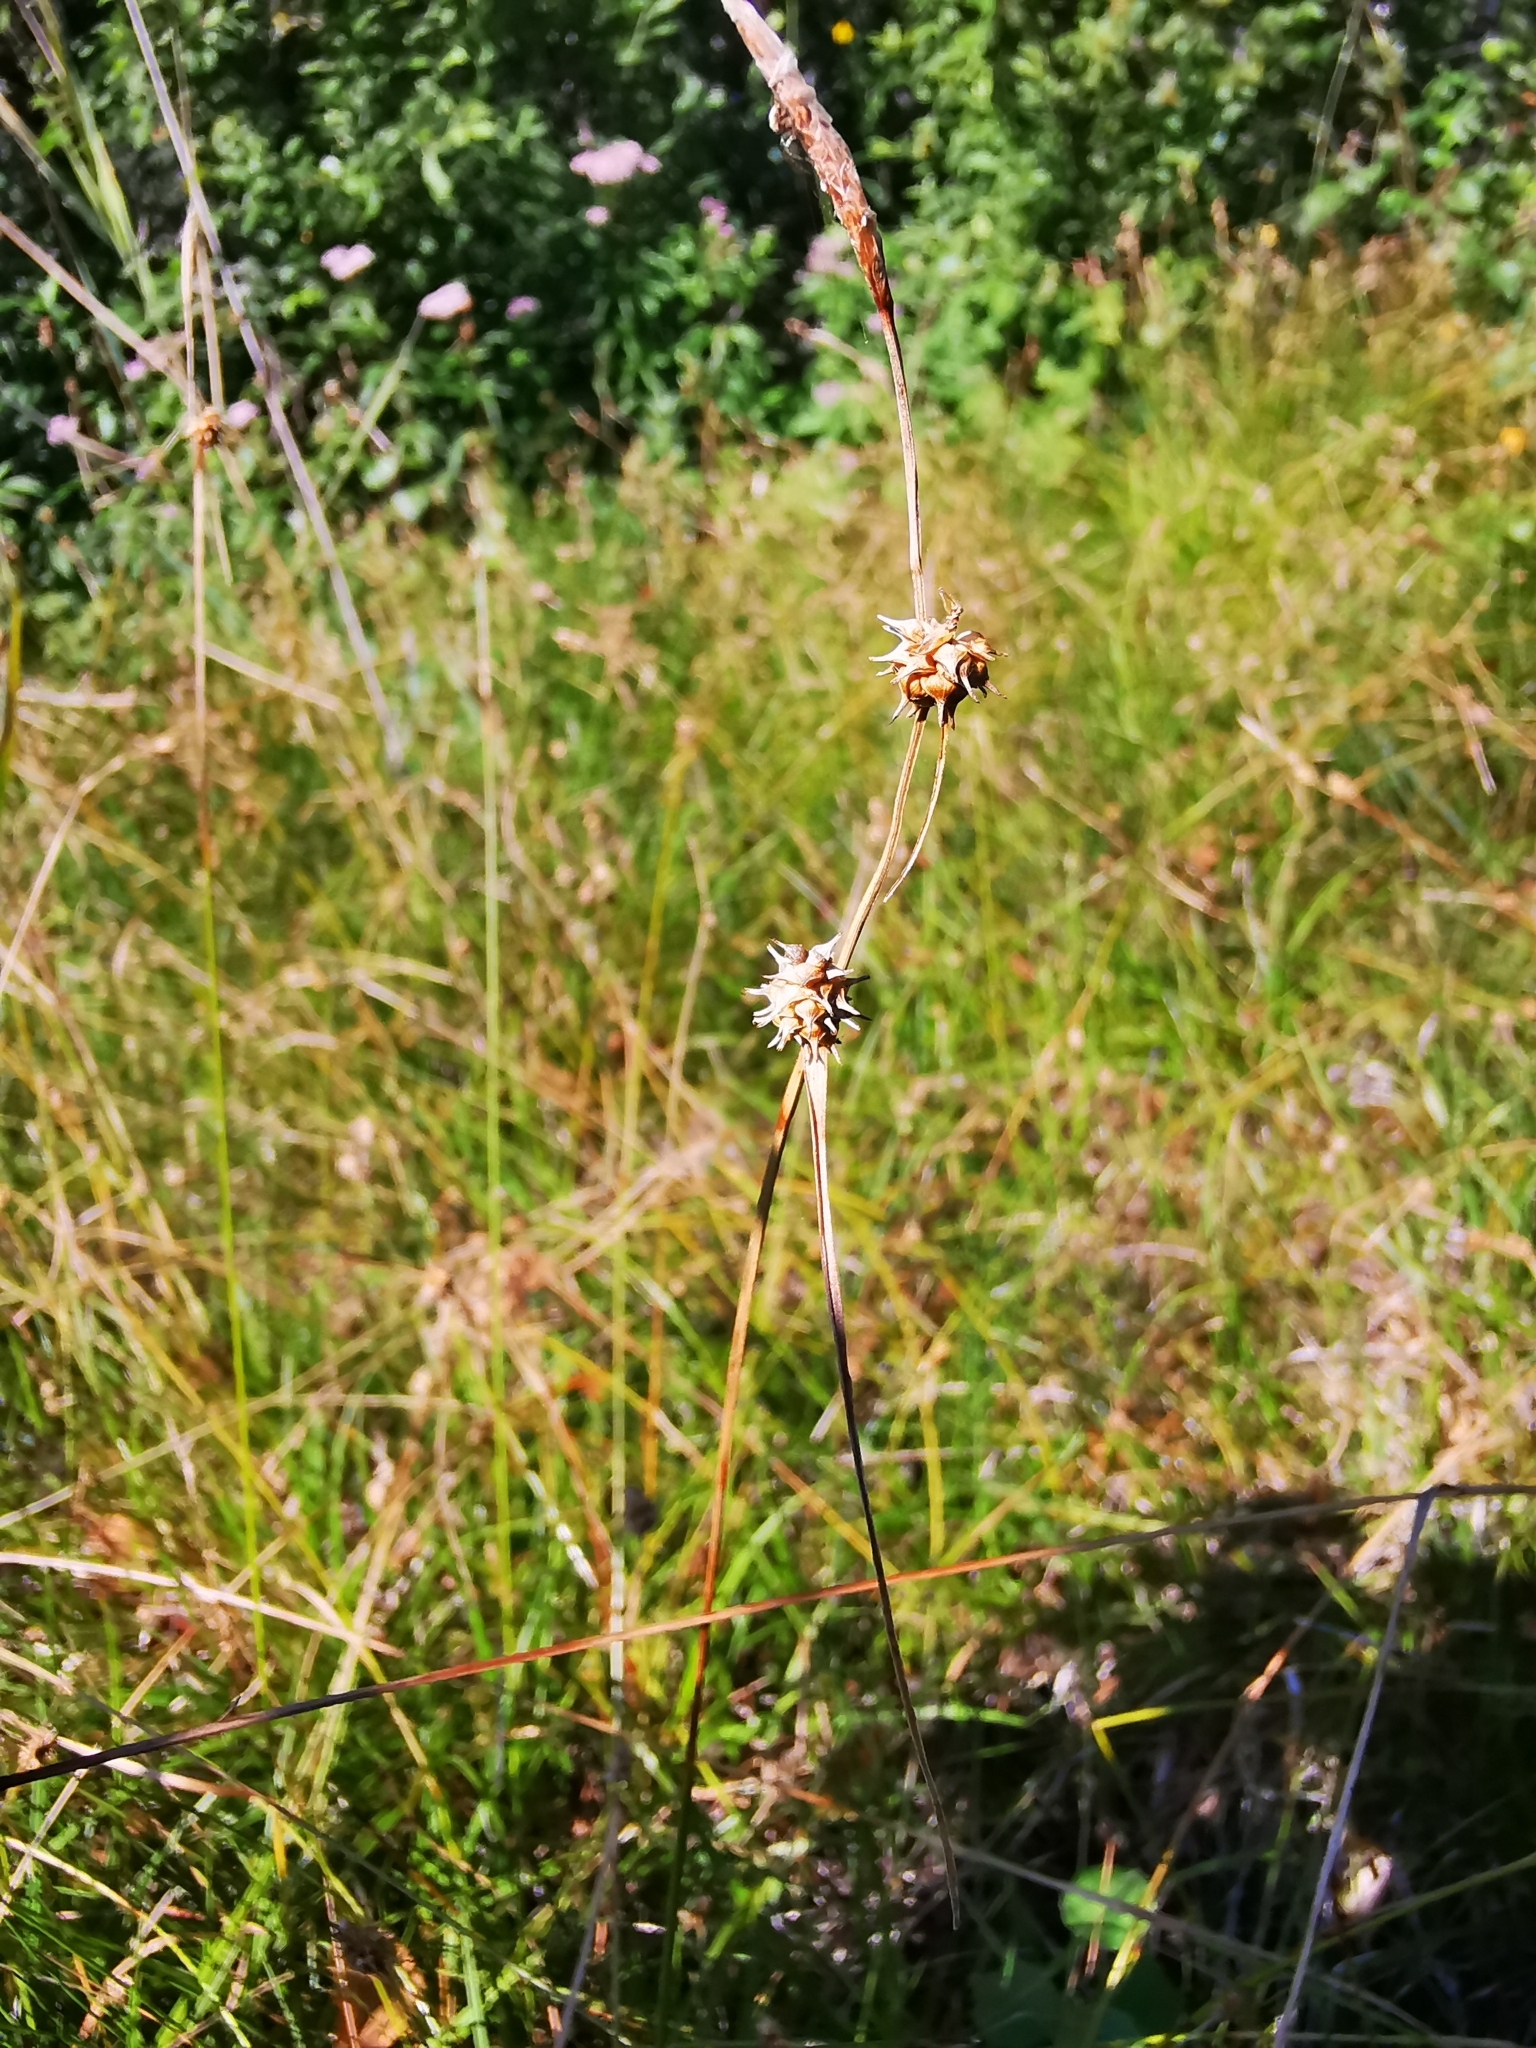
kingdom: Plantae
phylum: Tracheophyta
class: Liliopsida
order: Poales
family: Cyperaceae
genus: Carex
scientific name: Carex lepidocarpa
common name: Long-stalked yellow-sedge
